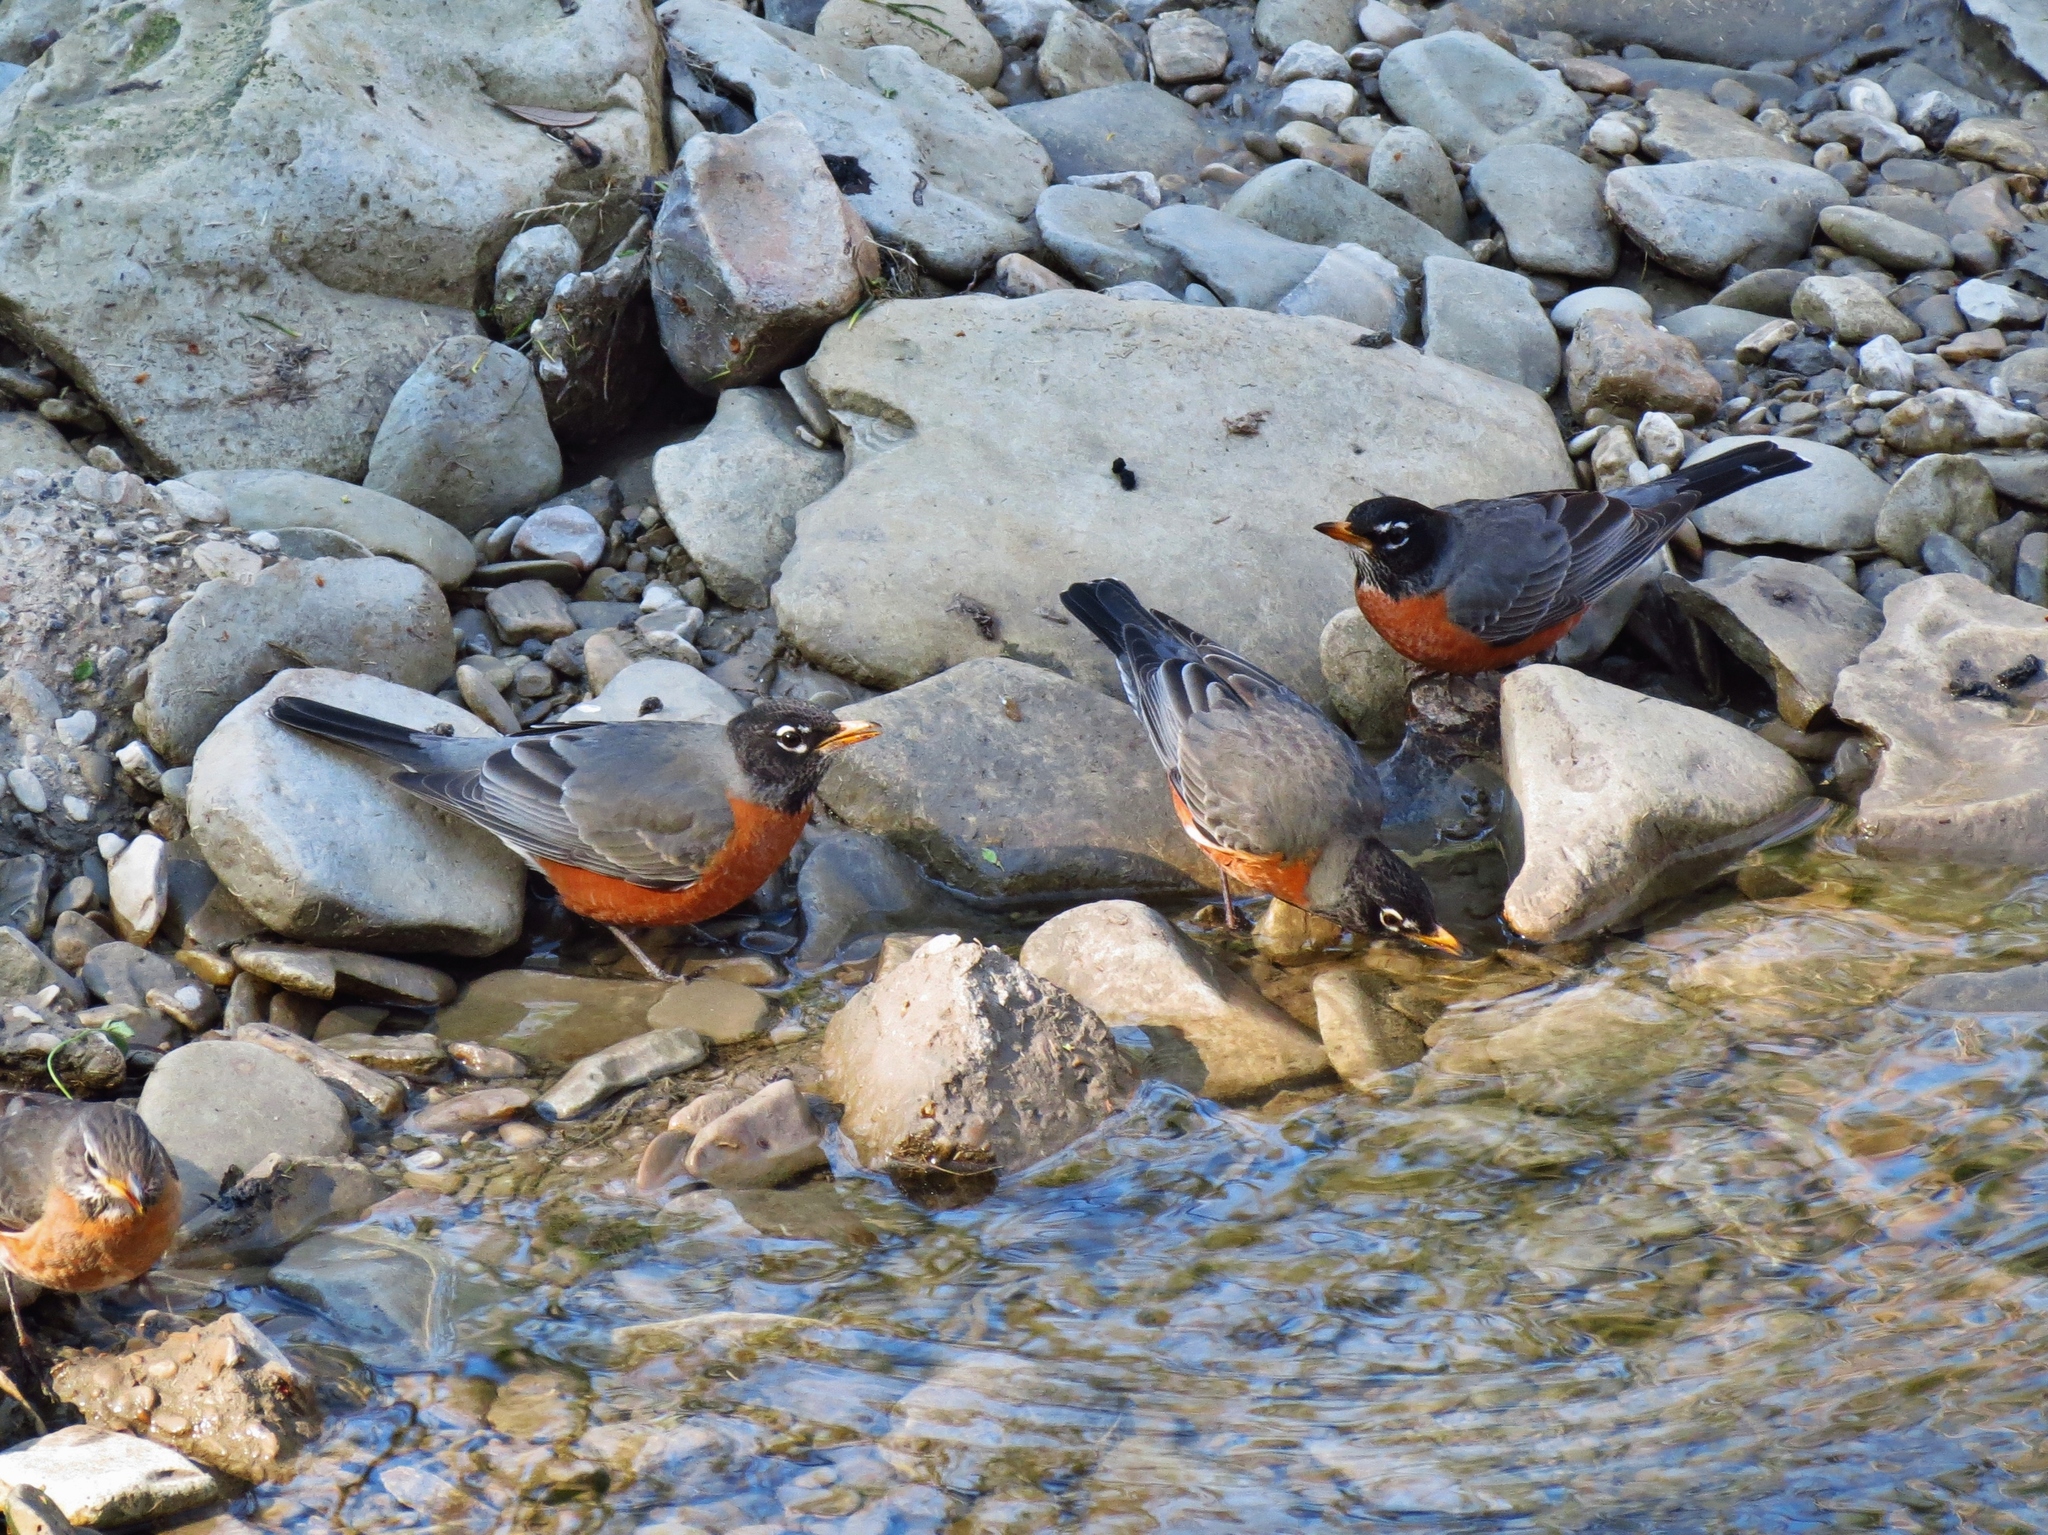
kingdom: Animalia
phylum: Chordata
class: Aves
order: Passeriformes
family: Turdidae
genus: Turdus
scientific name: Turdus migratorius
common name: American robin
